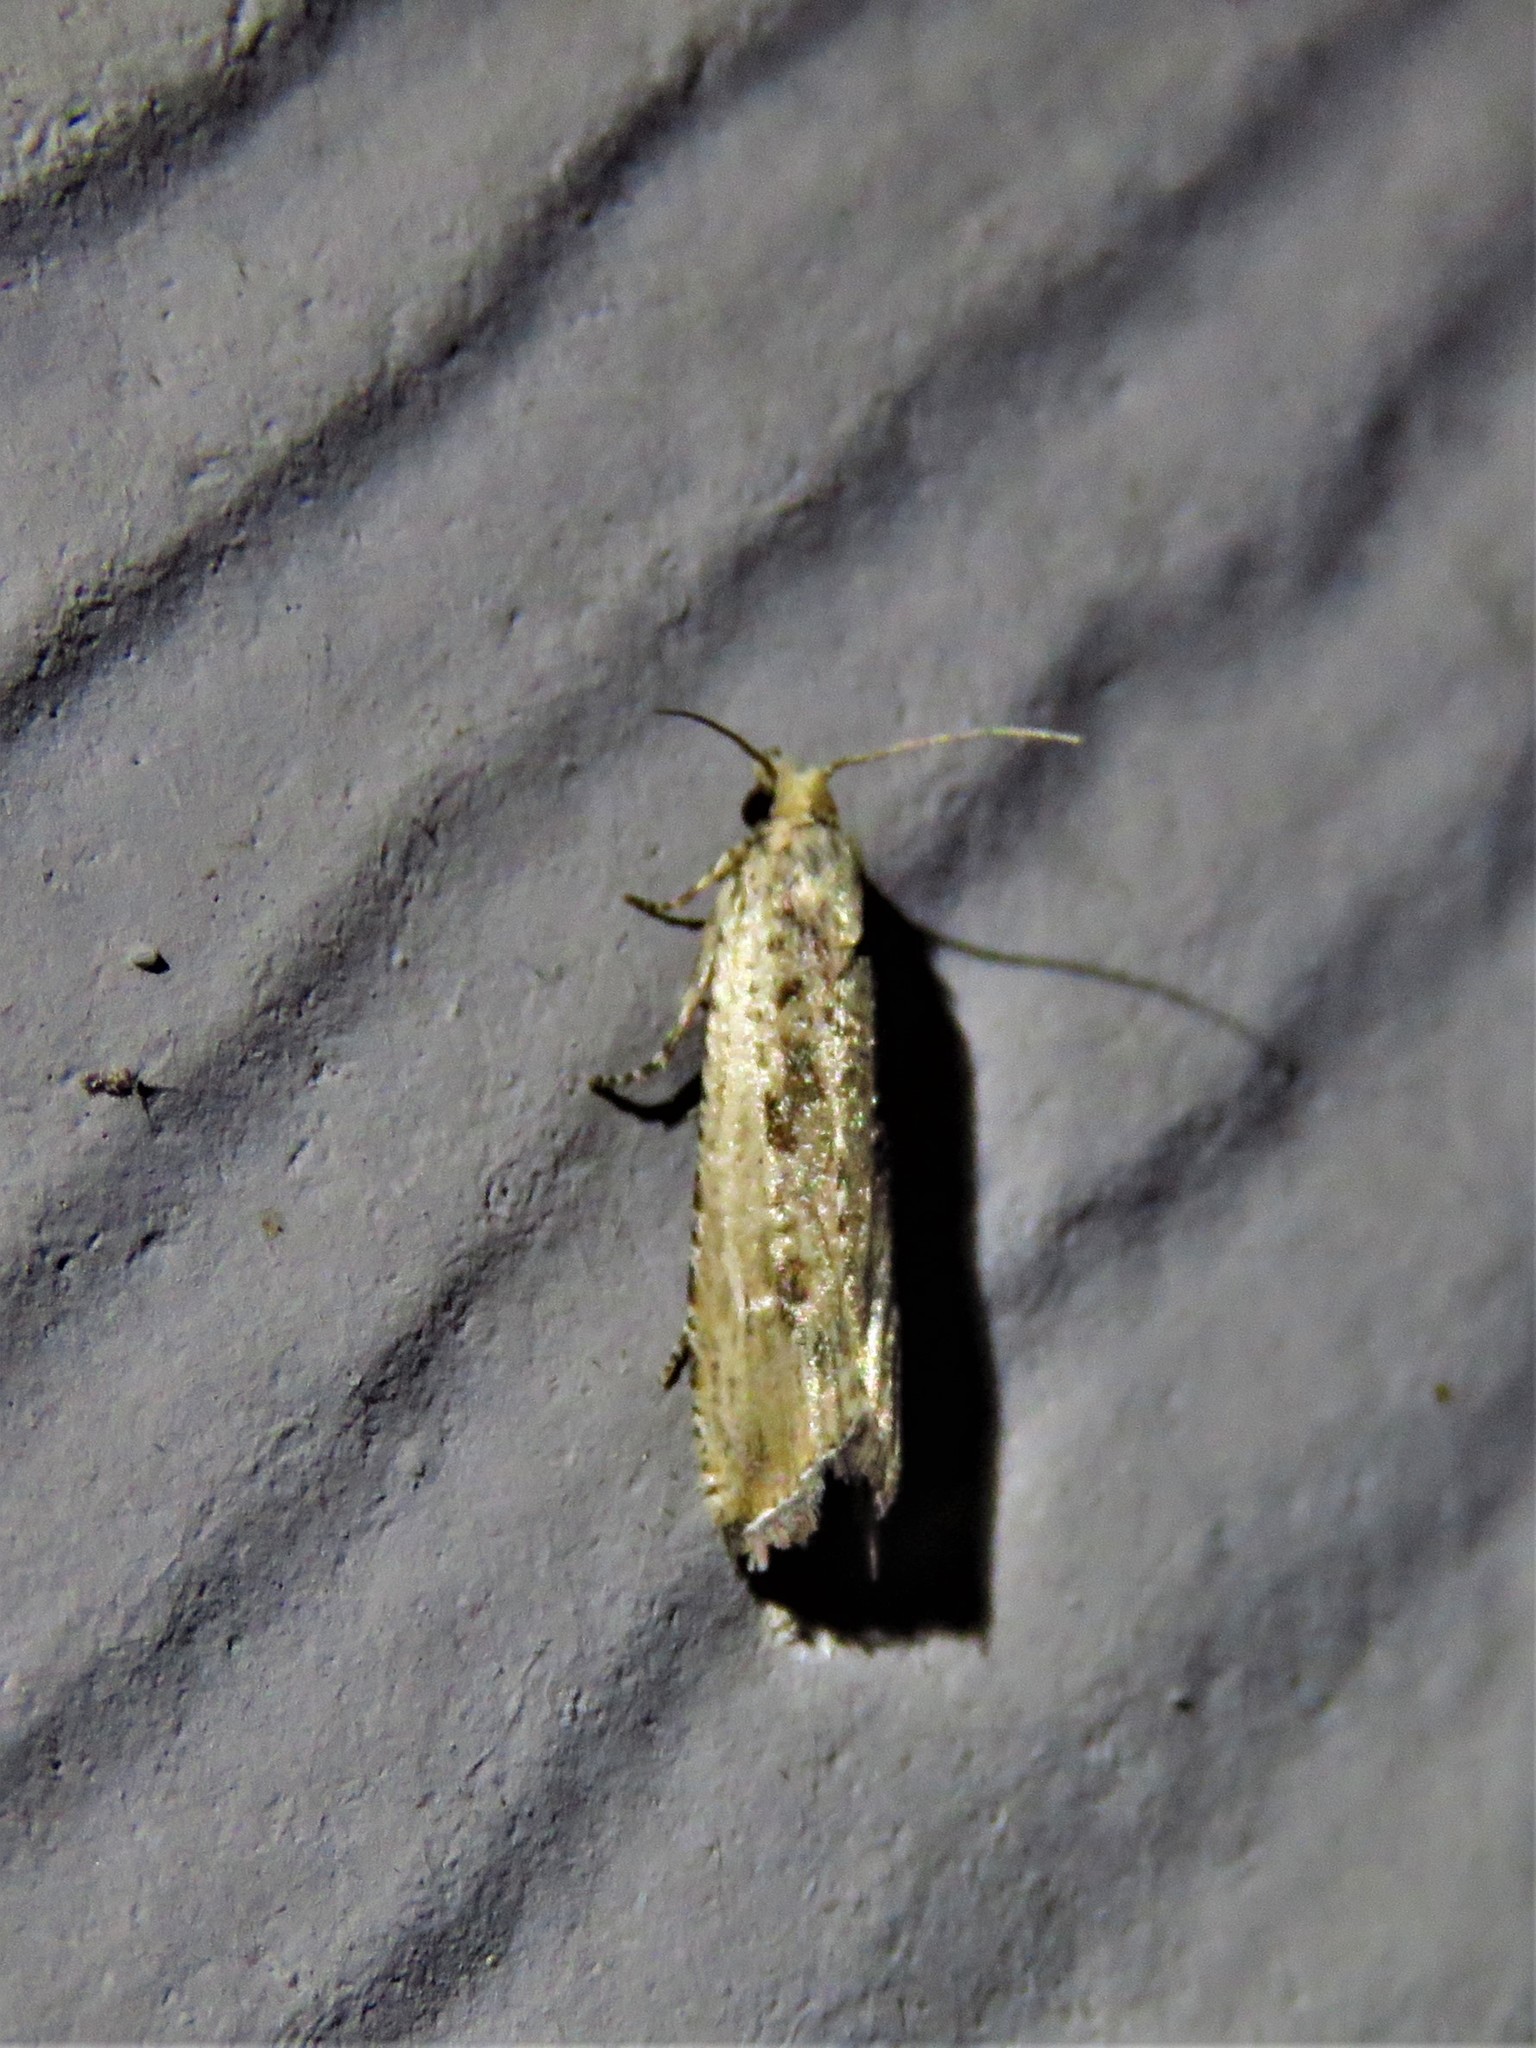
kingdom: Animalia
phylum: Arthropoda
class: Insecta
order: Lepidoptera
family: Tortricidae
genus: Bactra
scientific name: Bactra verutana
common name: Javelin moth
